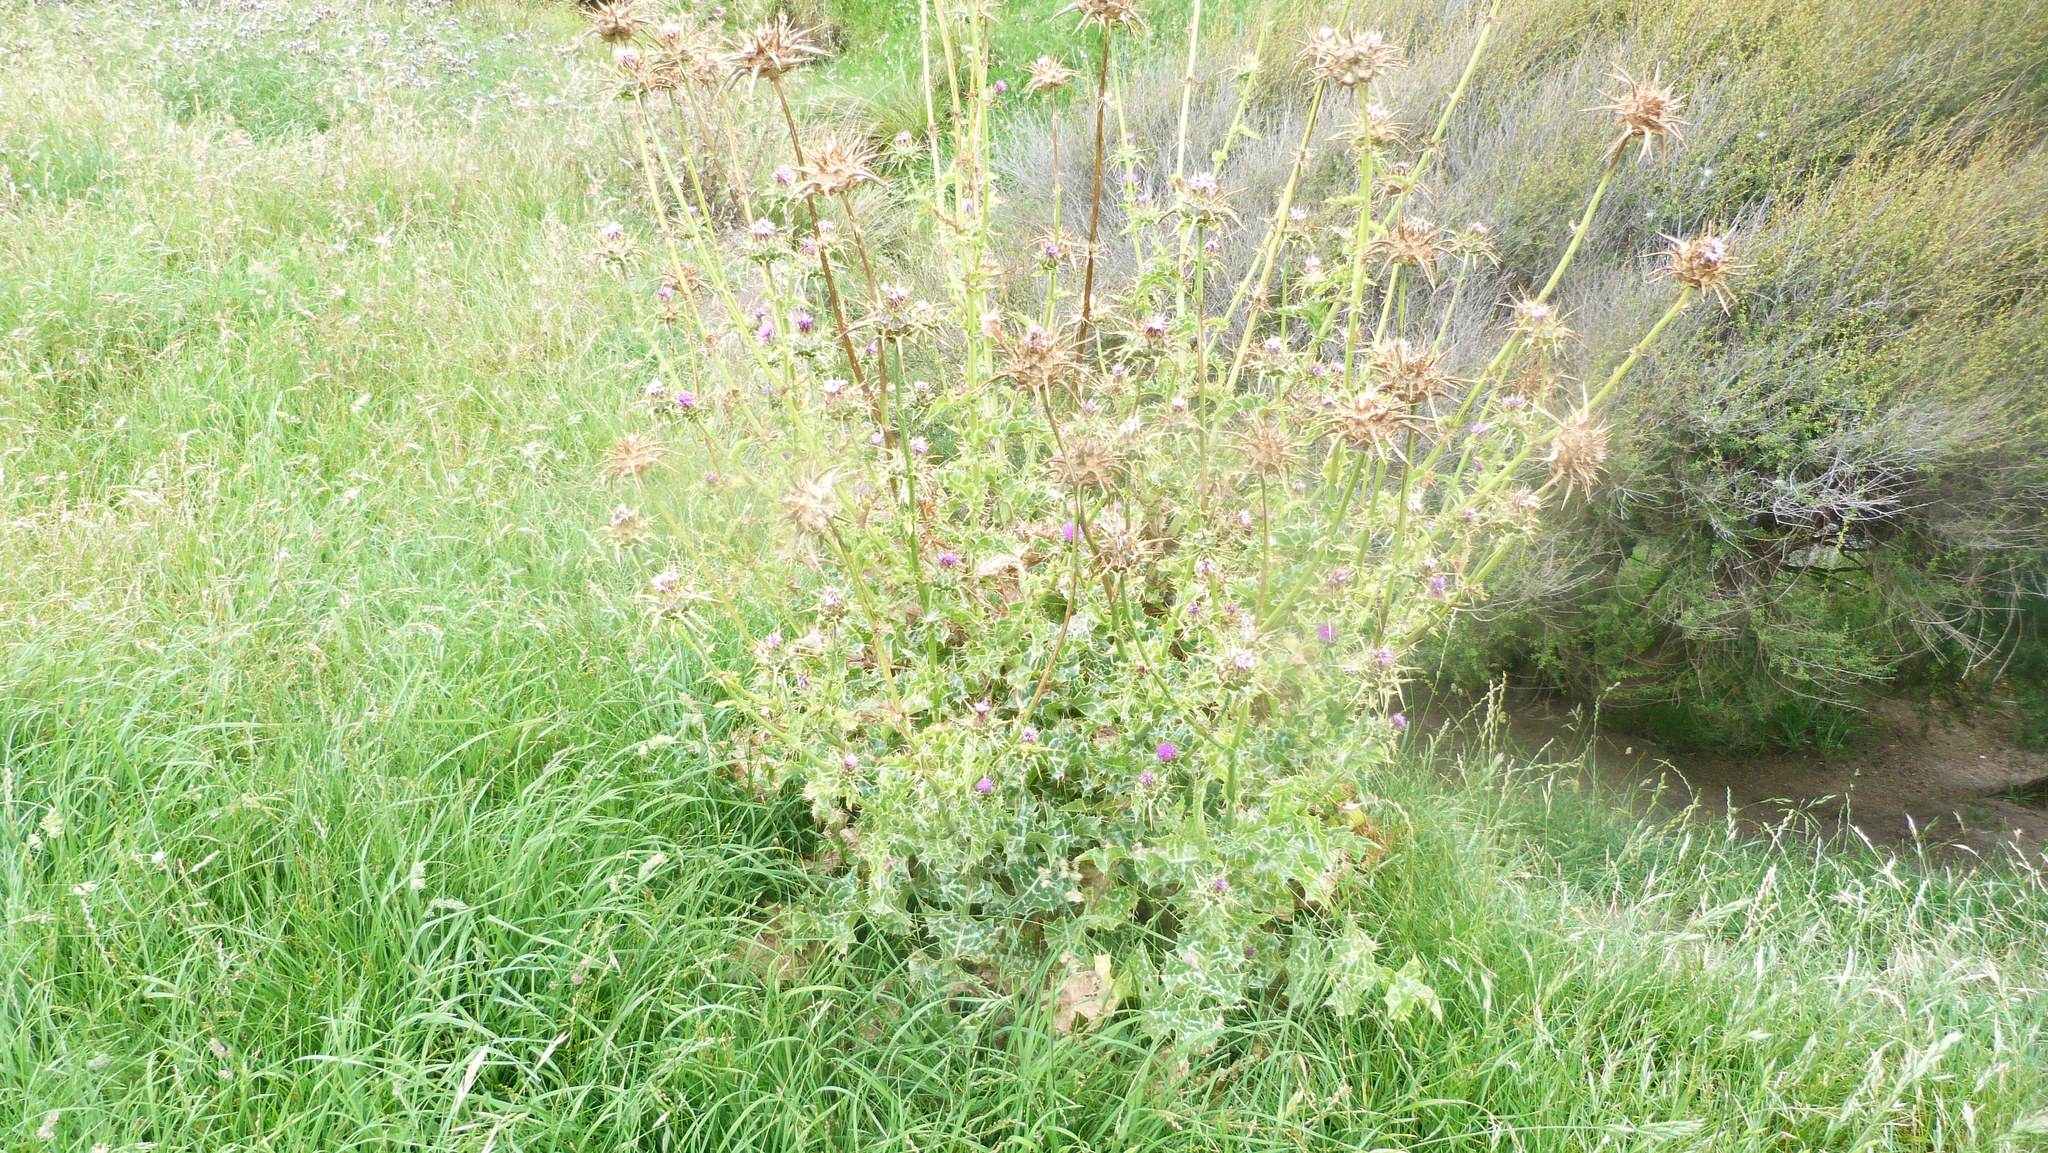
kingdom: Plantae
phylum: Tracheophyta
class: Magnoliopsida
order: Asterales
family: Asteraceae
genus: Silybum
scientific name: Silybum marianum
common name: Milk thistle
